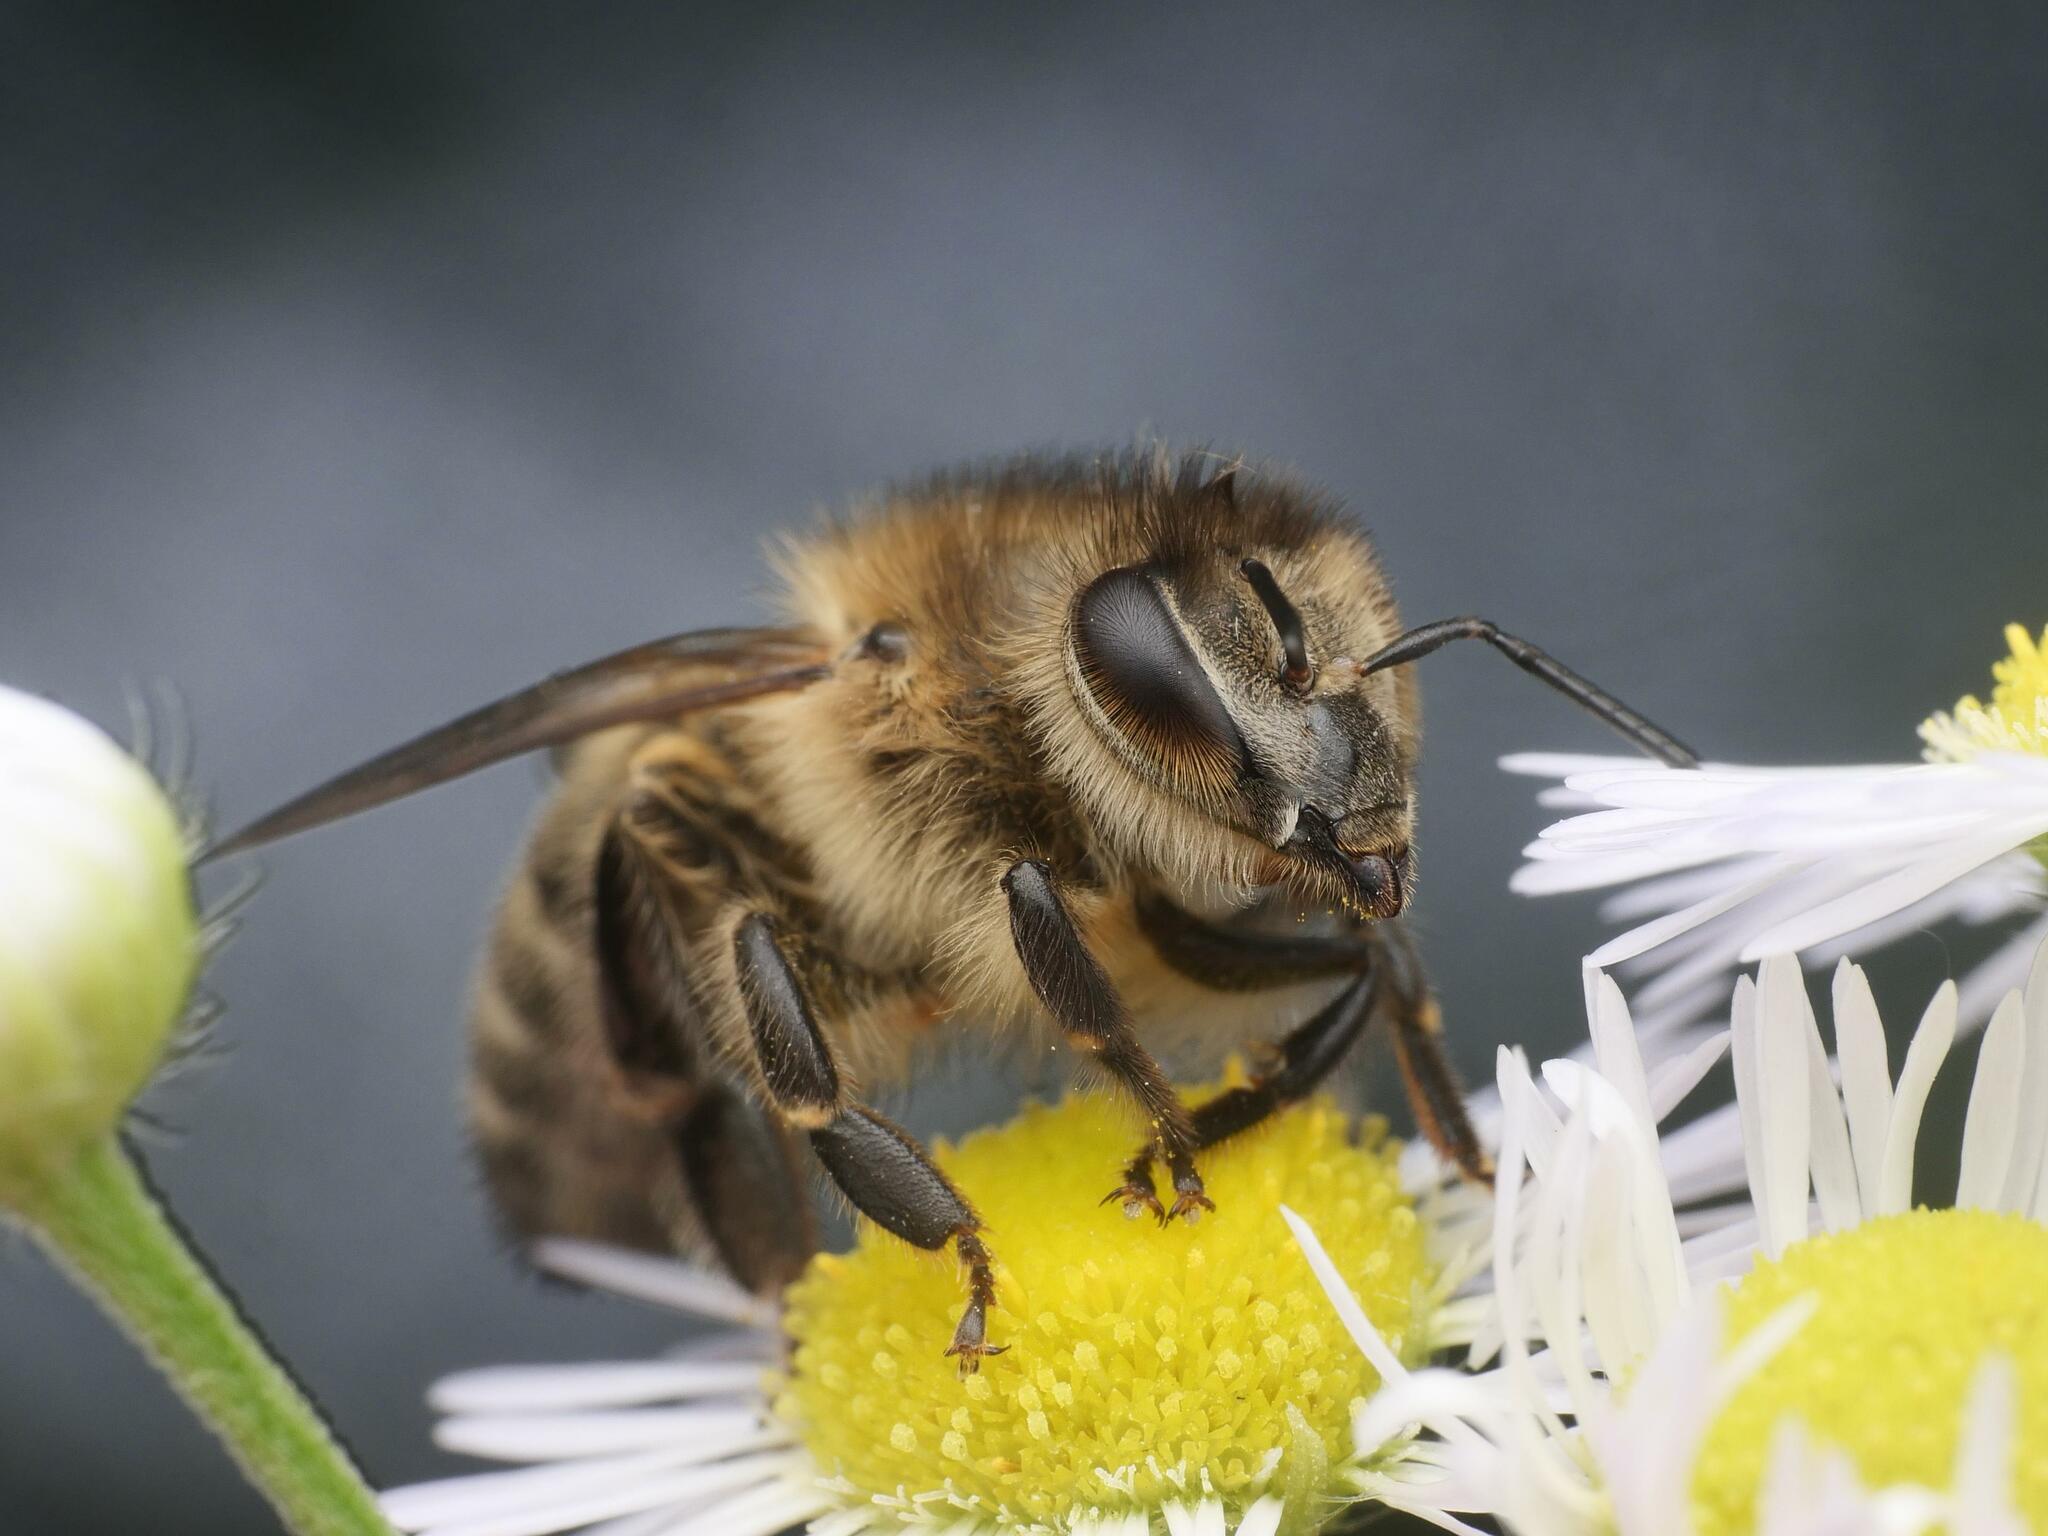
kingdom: Animalia
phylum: Arthropoda
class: Insecta
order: Hymenoptera
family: Apidae
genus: Apis
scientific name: Apis mellifera
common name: Honey bee
